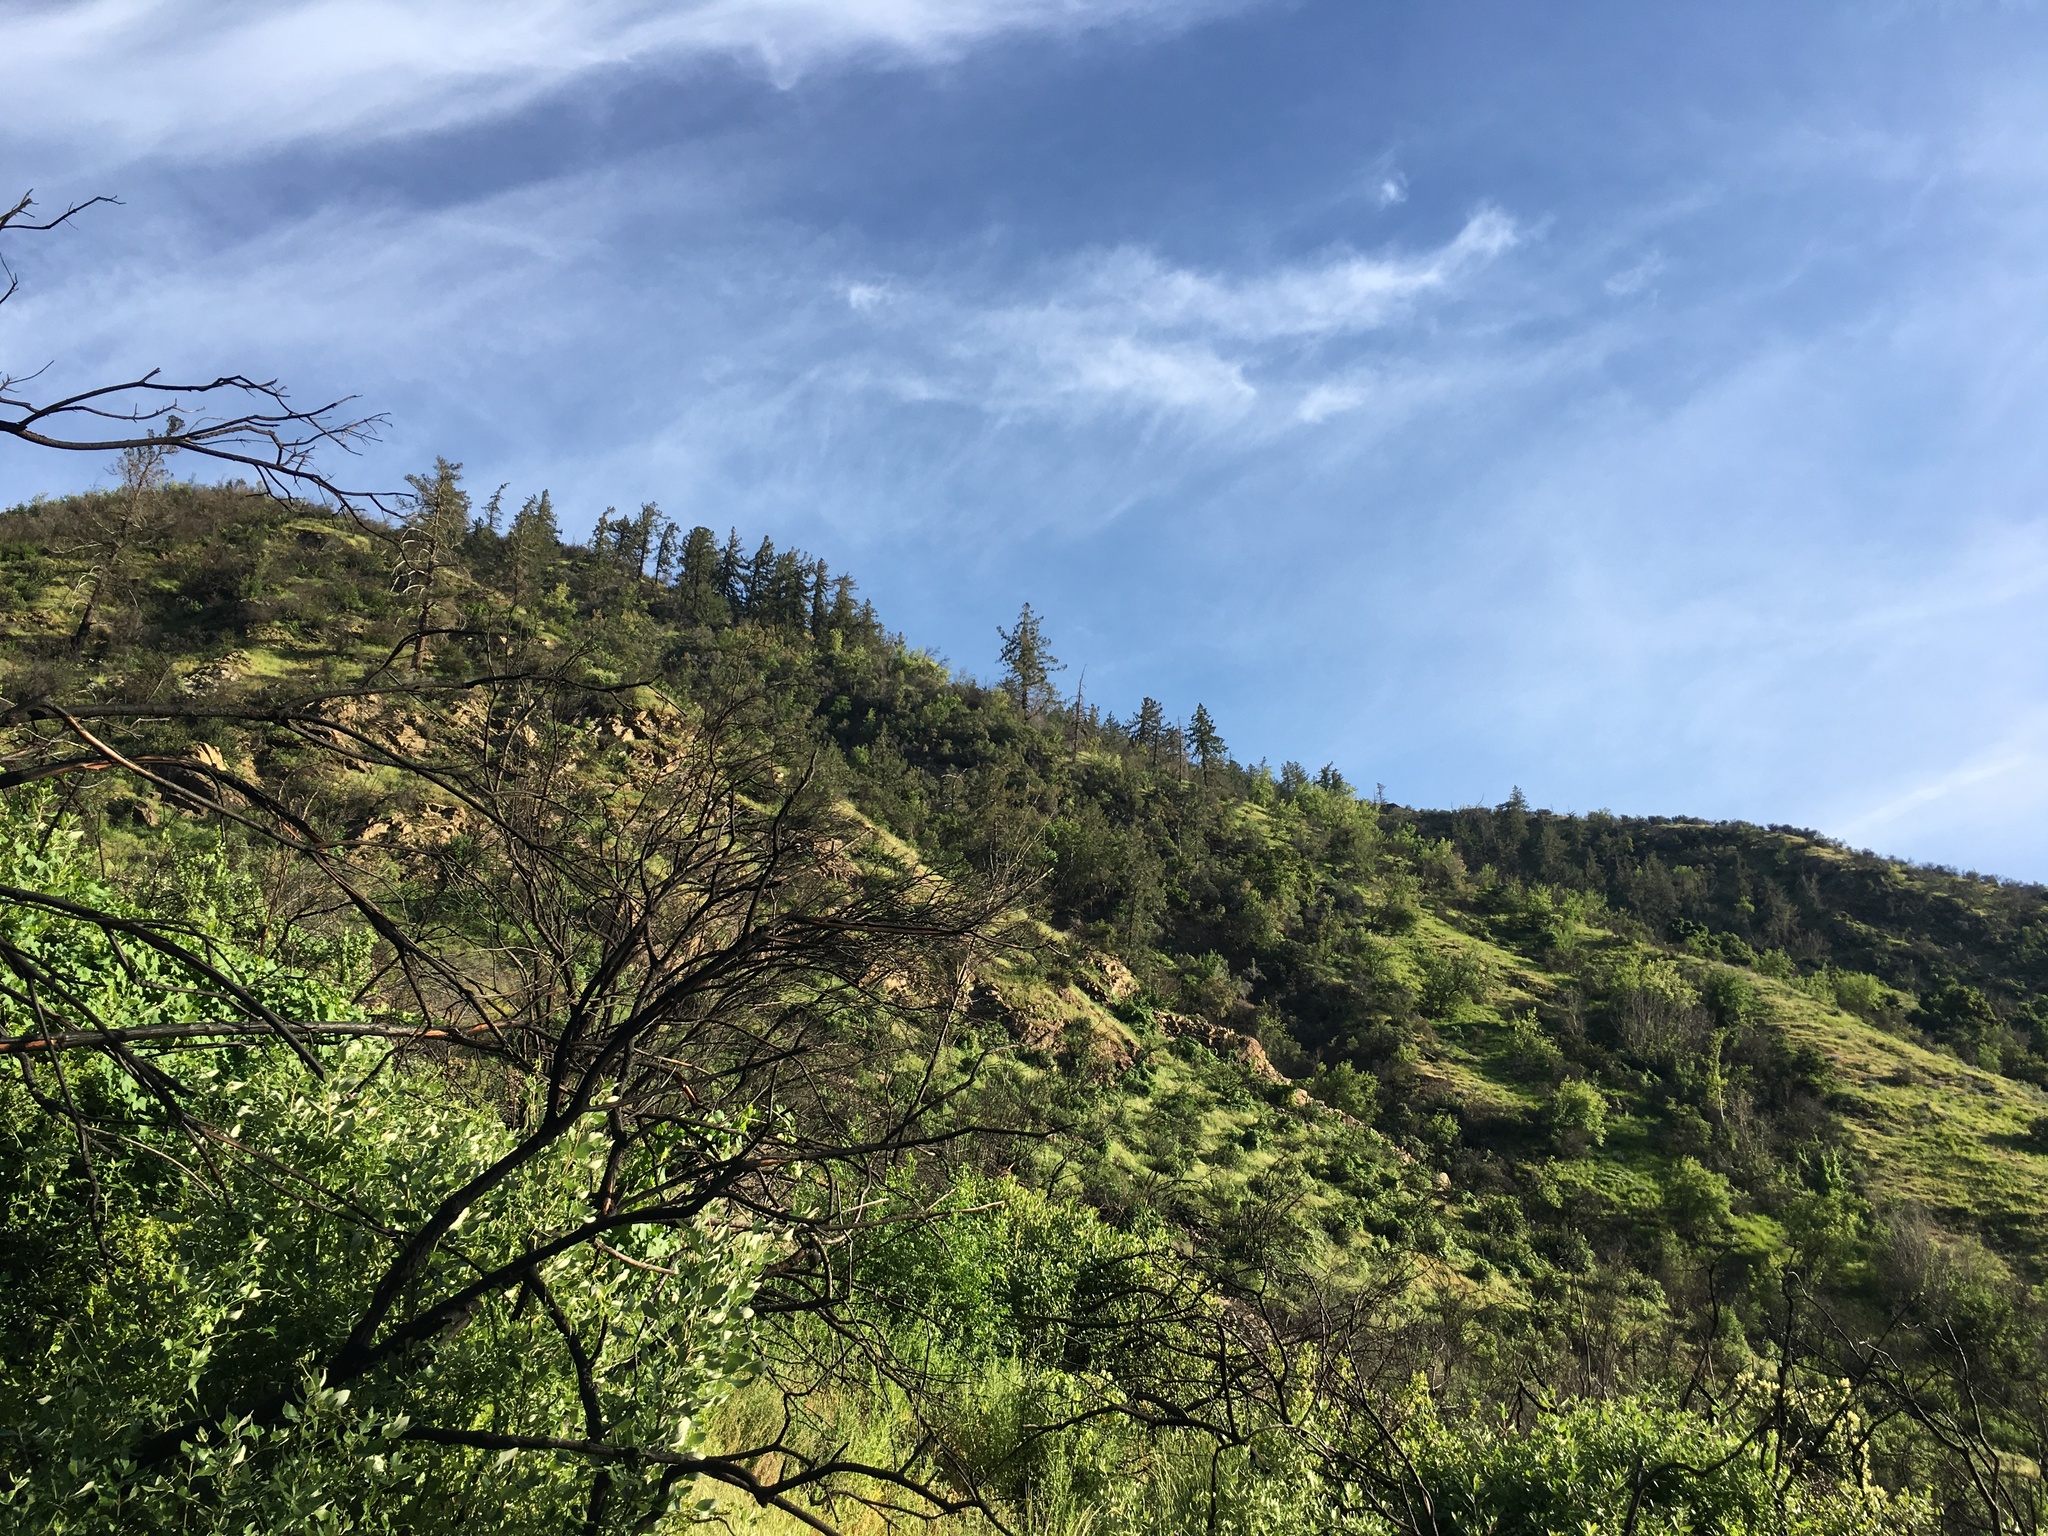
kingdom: Plantae
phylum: Tracheophyta
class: Pinopsida
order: Pinales
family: Pinaceae
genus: Pseudotsuga
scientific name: Pseudotsuga macrocarpa
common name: Big-cone douglas-fir
